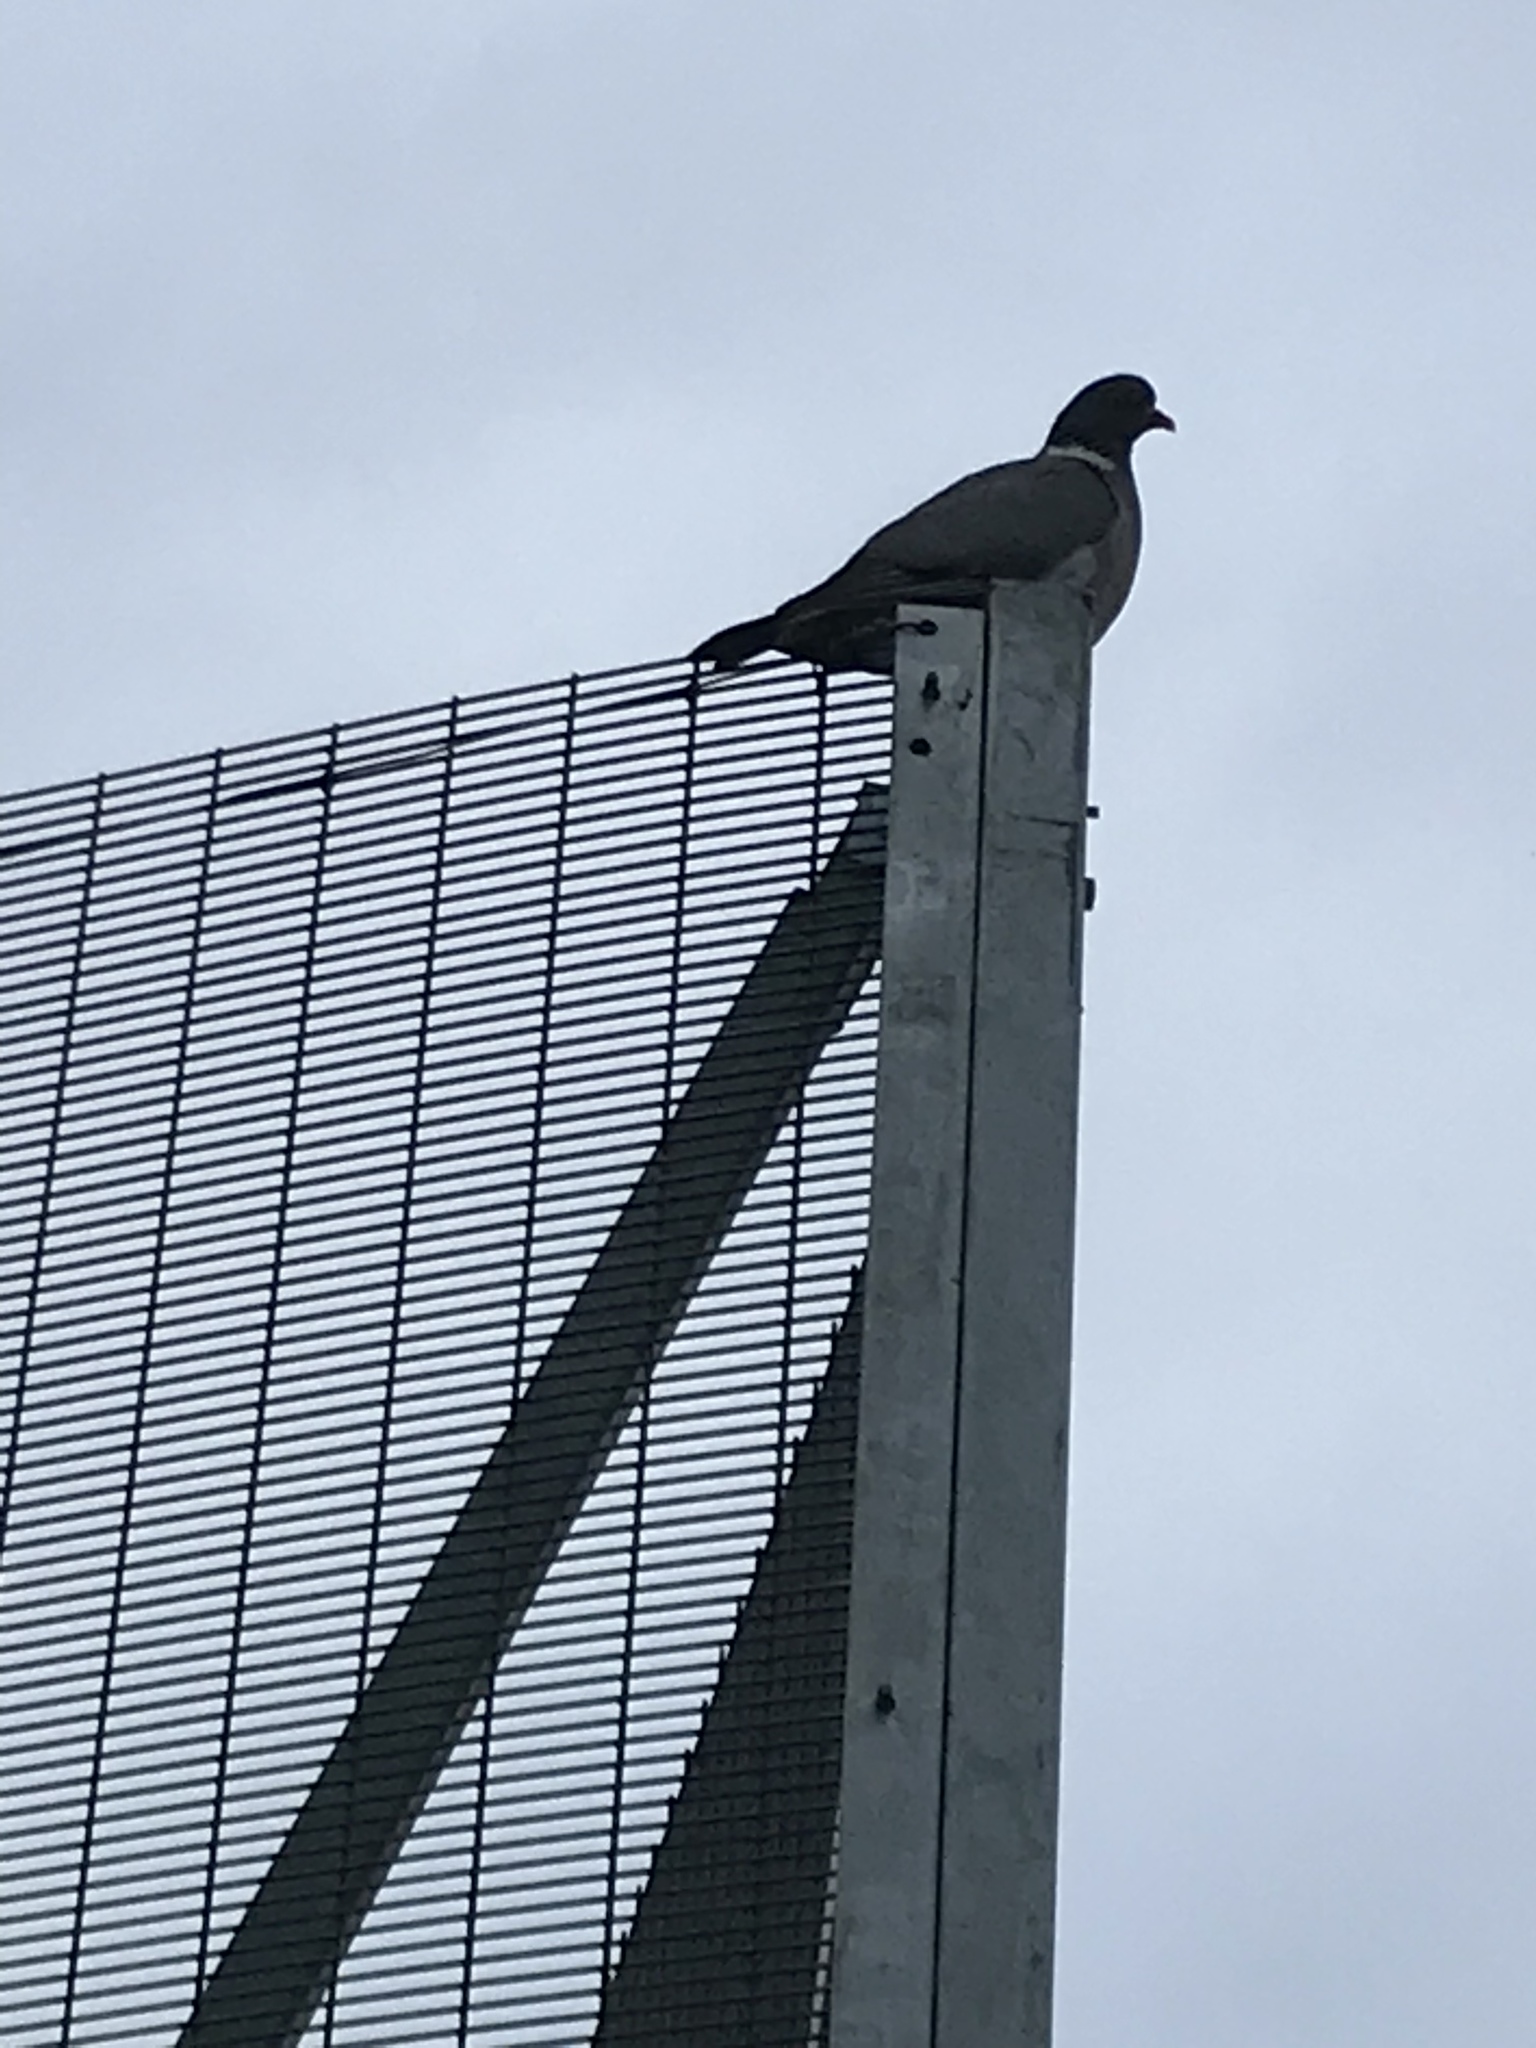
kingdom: Animalia
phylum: Chordata
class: Aves
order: Columbiformes
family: Columbidae
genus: Columba
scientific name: Columba palumbus
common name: Common wood pigeon
